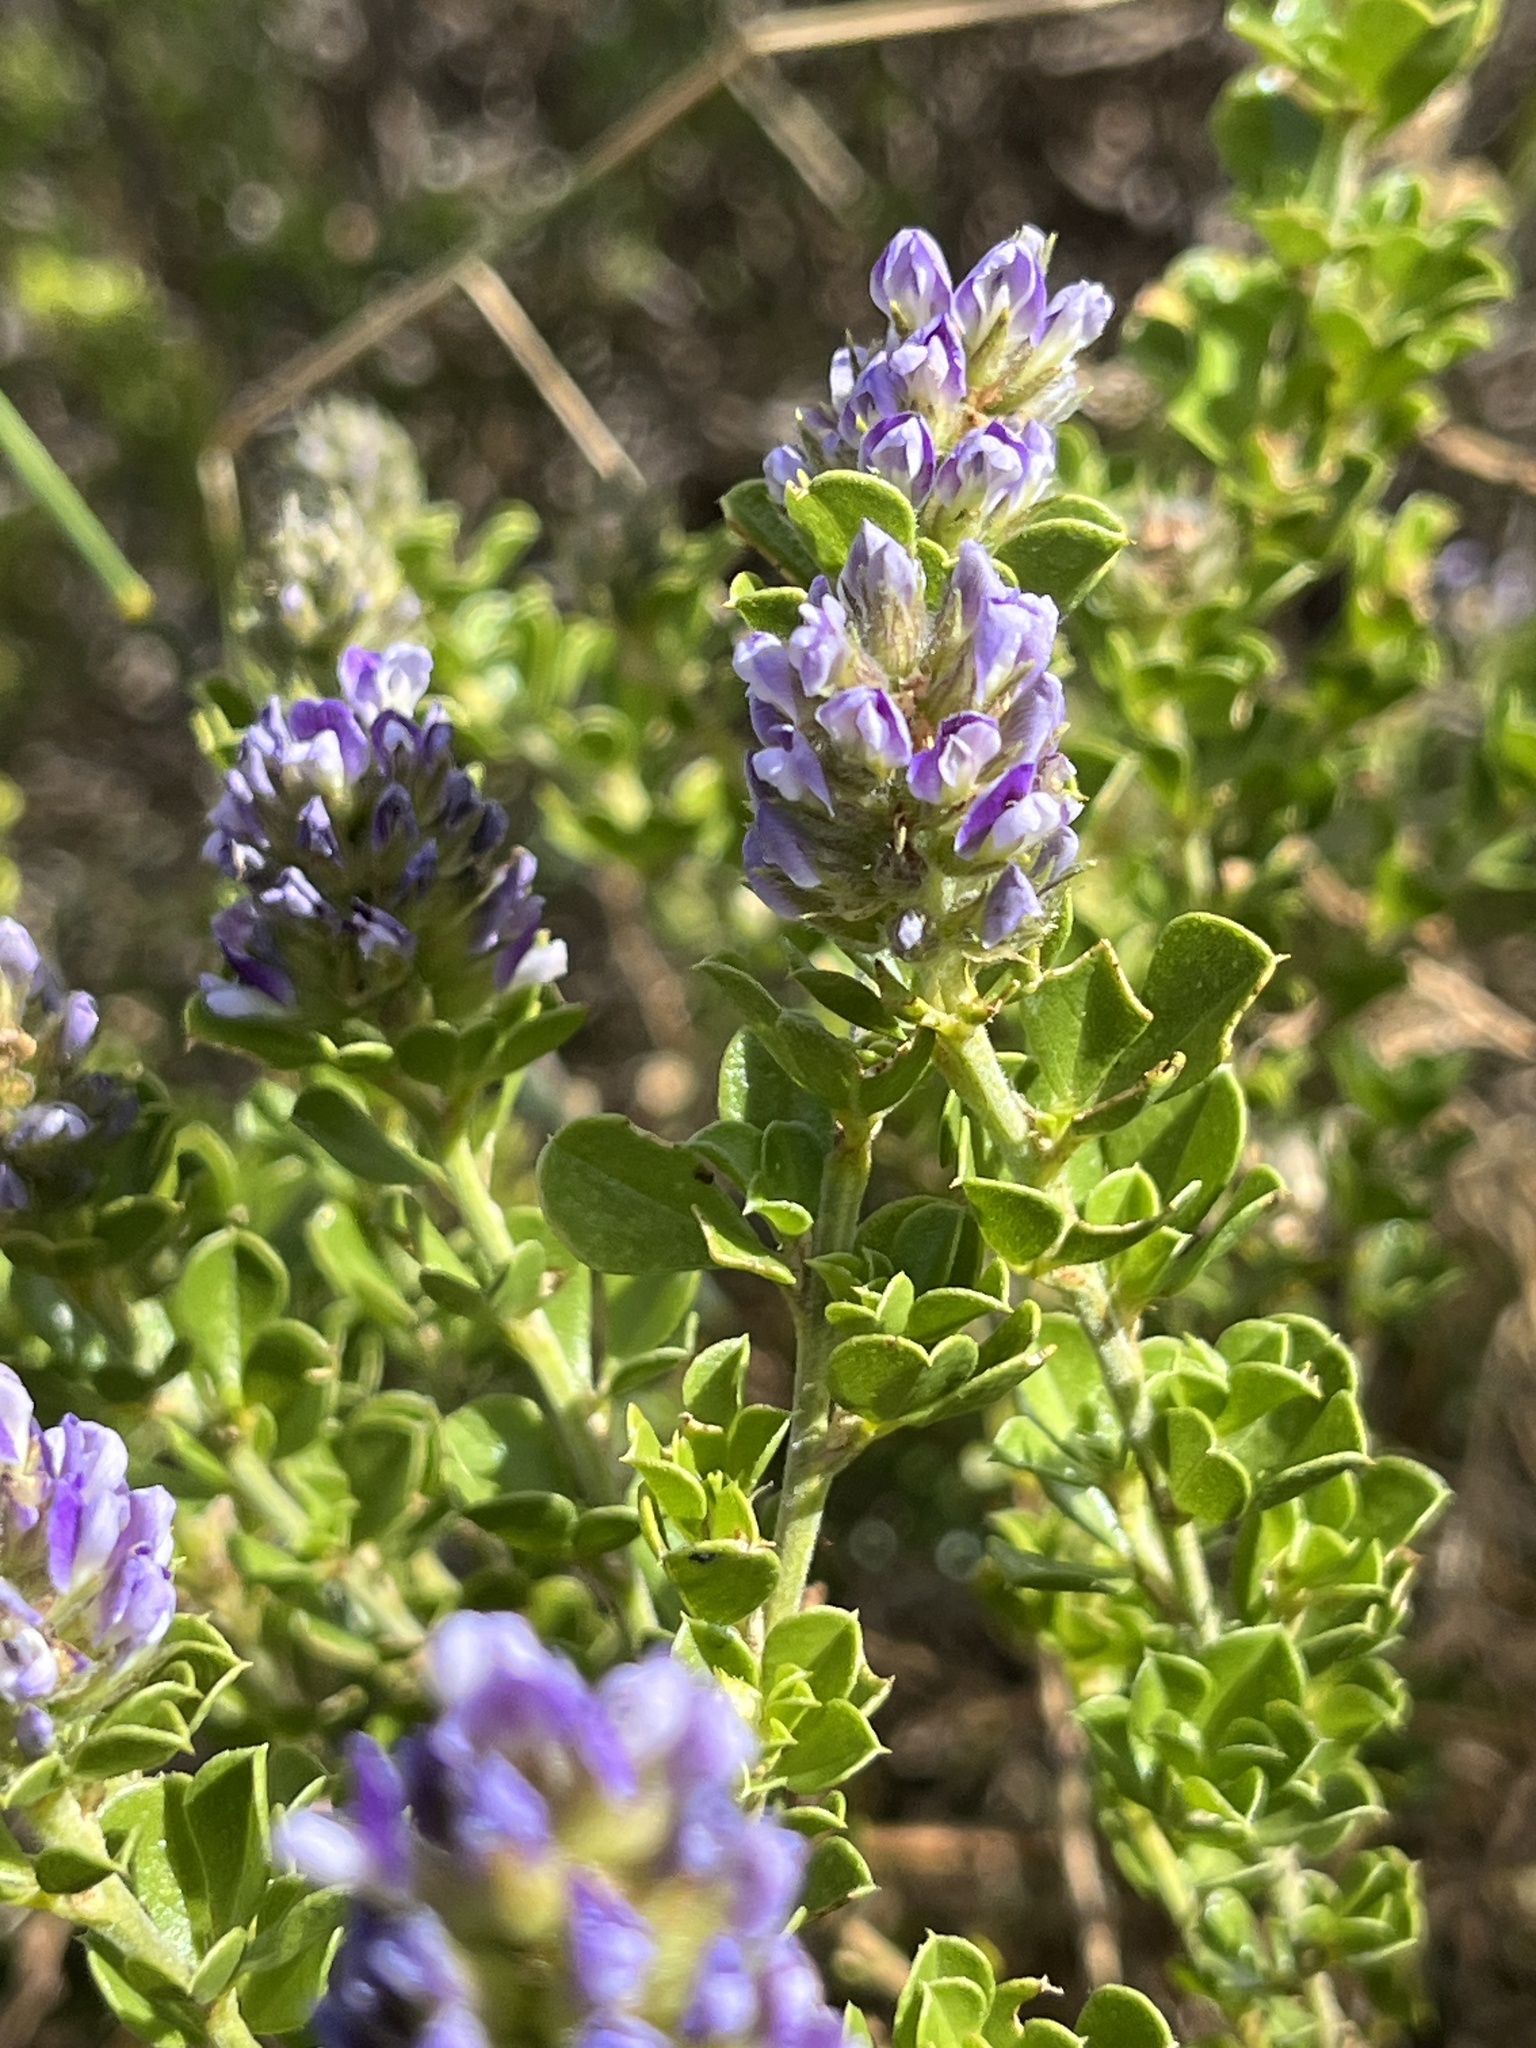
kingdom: Plantae
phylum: Tracheophyta
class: Magnoliopsida
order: Fabales
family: Fabaceae
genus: Psoralea
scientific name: Psoralea bracteolata
